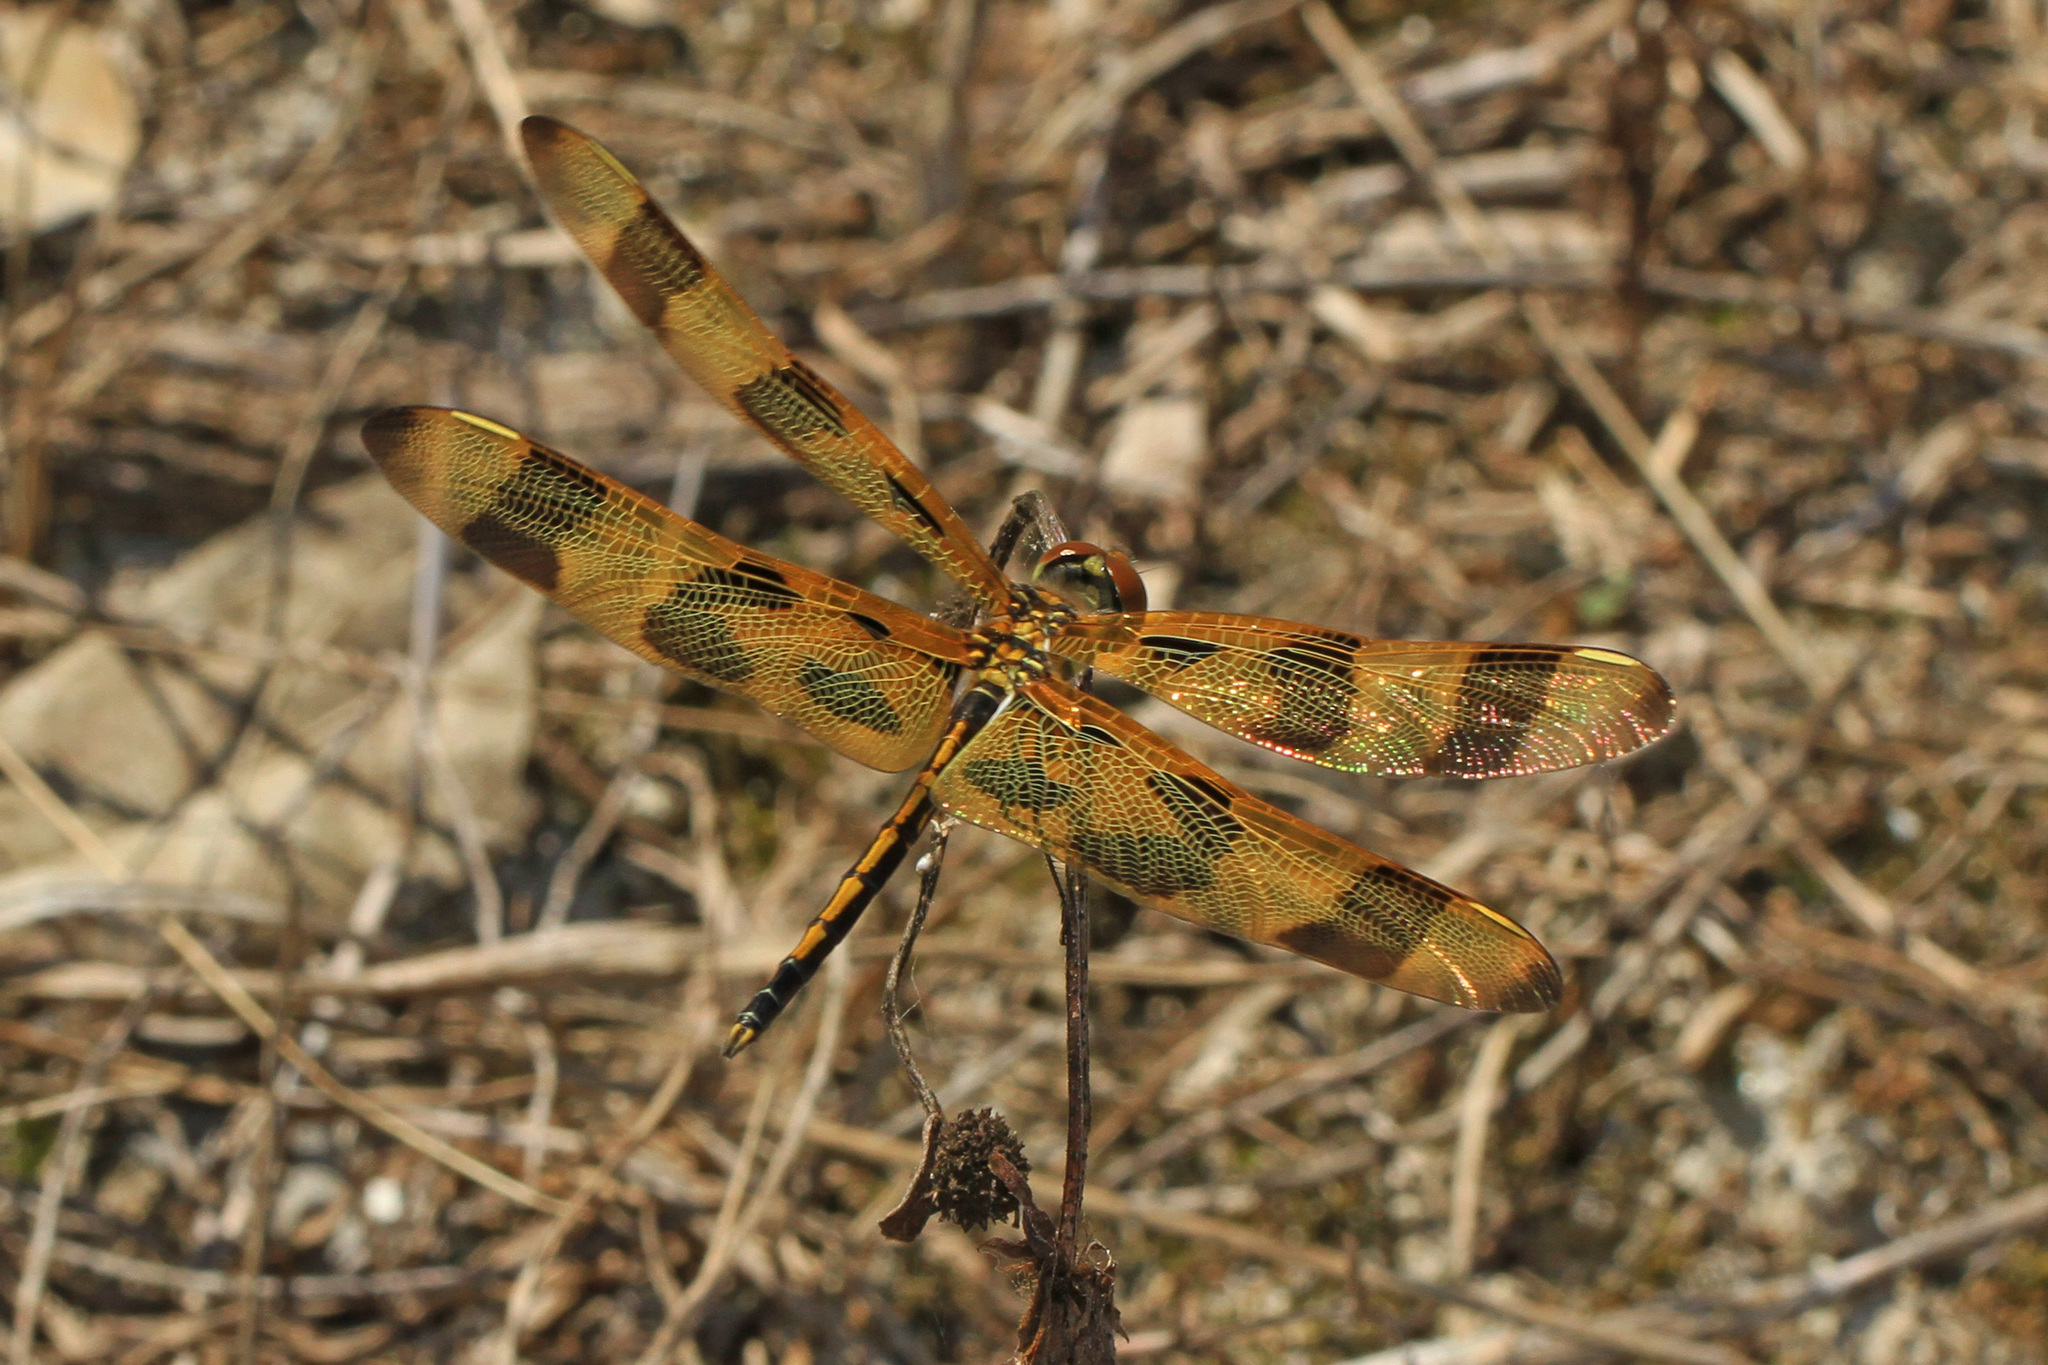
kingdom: Animalia
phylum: Arthropoda
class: Insecta
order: Odonata
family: Libellulidae
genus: Celithemis
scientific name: Celithemis eponina
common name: Halloween pennant
